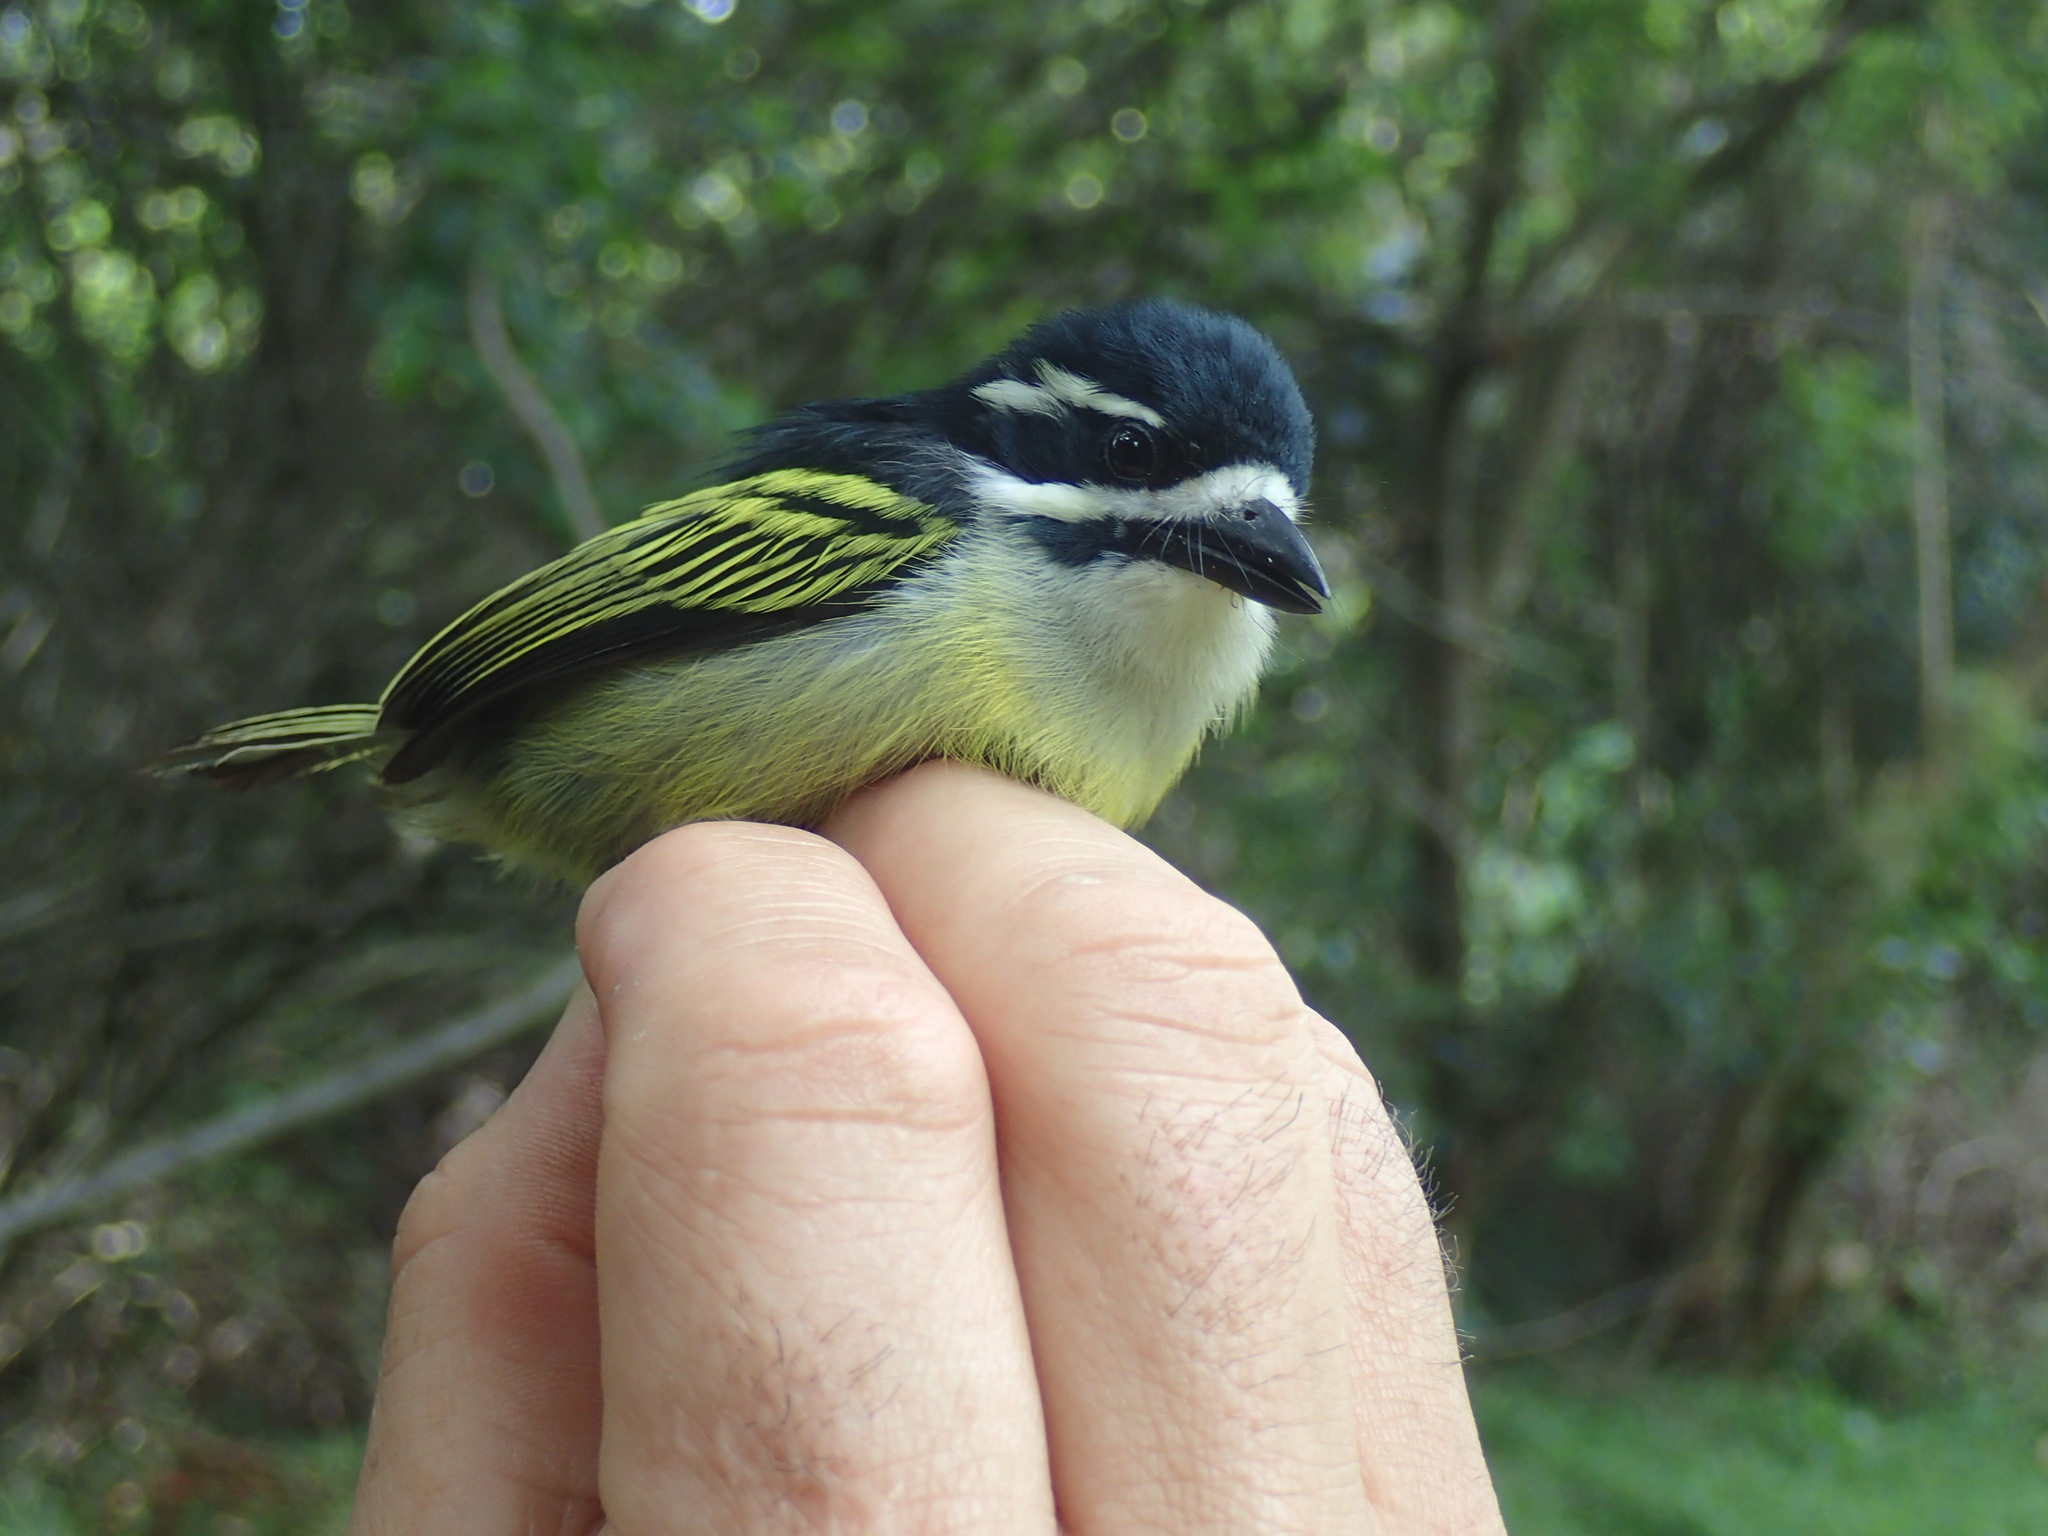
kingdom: Animalia
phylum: Chordata
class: Aves
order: Piciformes
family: Lybiidae
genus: Pogoniulus
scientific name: Pogoniulus bilineatus
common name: Yellow-rumped tinkerbird
